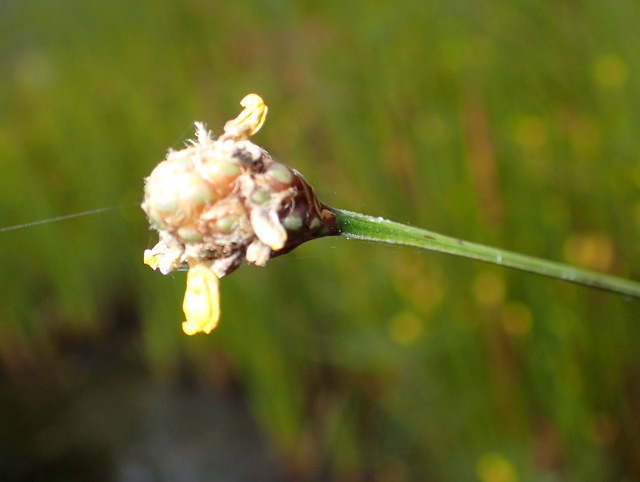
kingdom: Plantae
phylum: Tracheophyta
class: Liliopsida
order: Poales
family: Xyridaceae
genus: Xyris
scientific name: Xyris fimbriata
